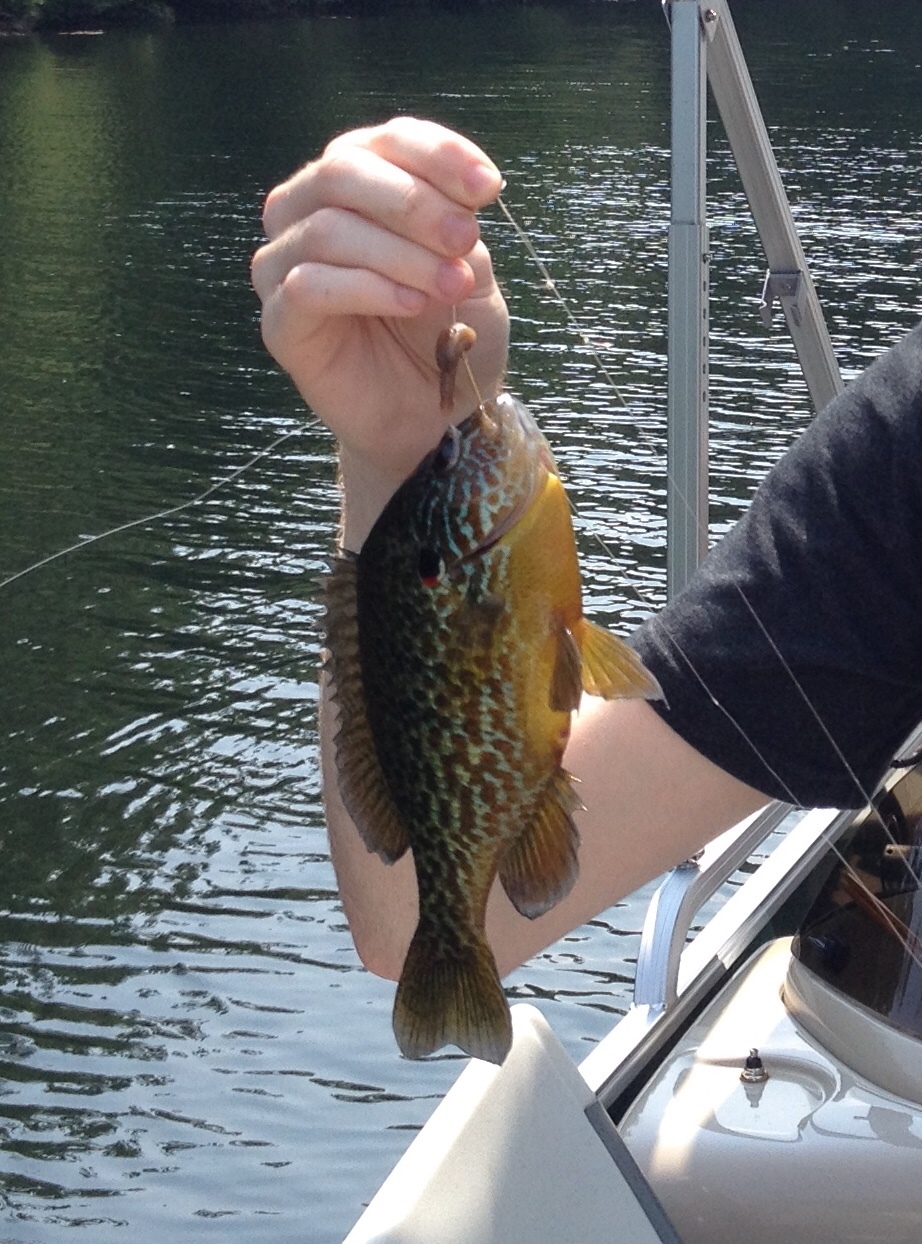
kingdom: Animalia
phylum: Chordata
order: Perciformes
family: Centrarchidae
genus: Lepomis
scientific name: Lepomis gibbosus
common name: Pumpkinseed
